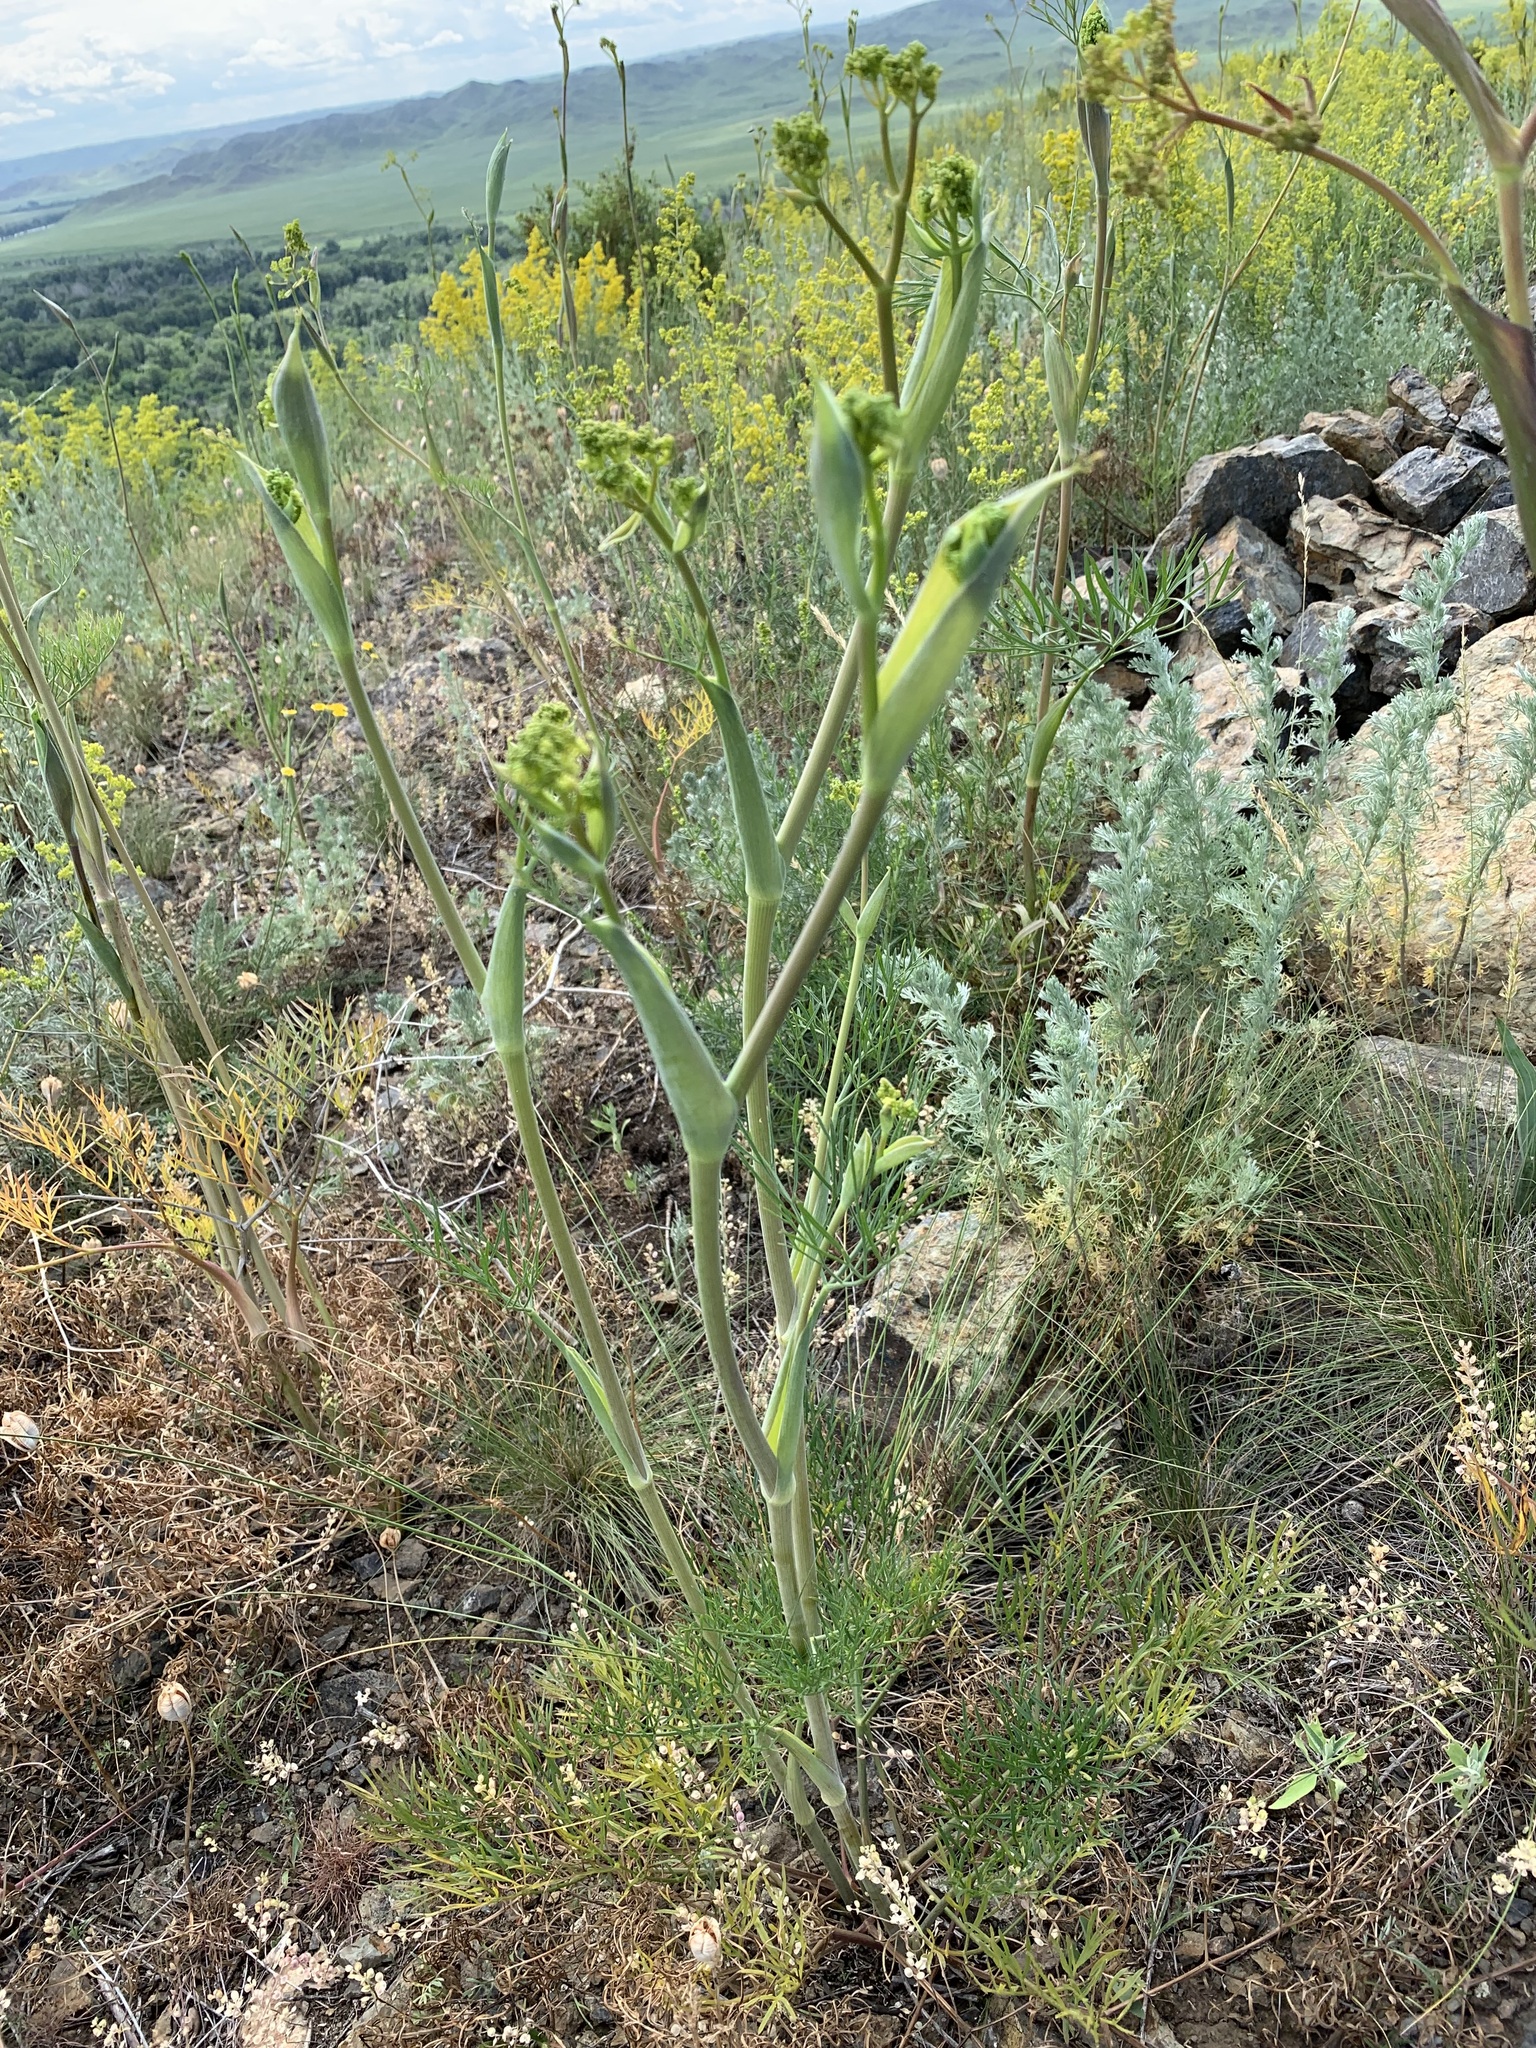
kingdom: Plantae
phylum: Tracheophyta
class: Magnoliopsida
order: Apiales
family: Apiaceae
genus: Ferula
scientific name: Ferula tatarica
